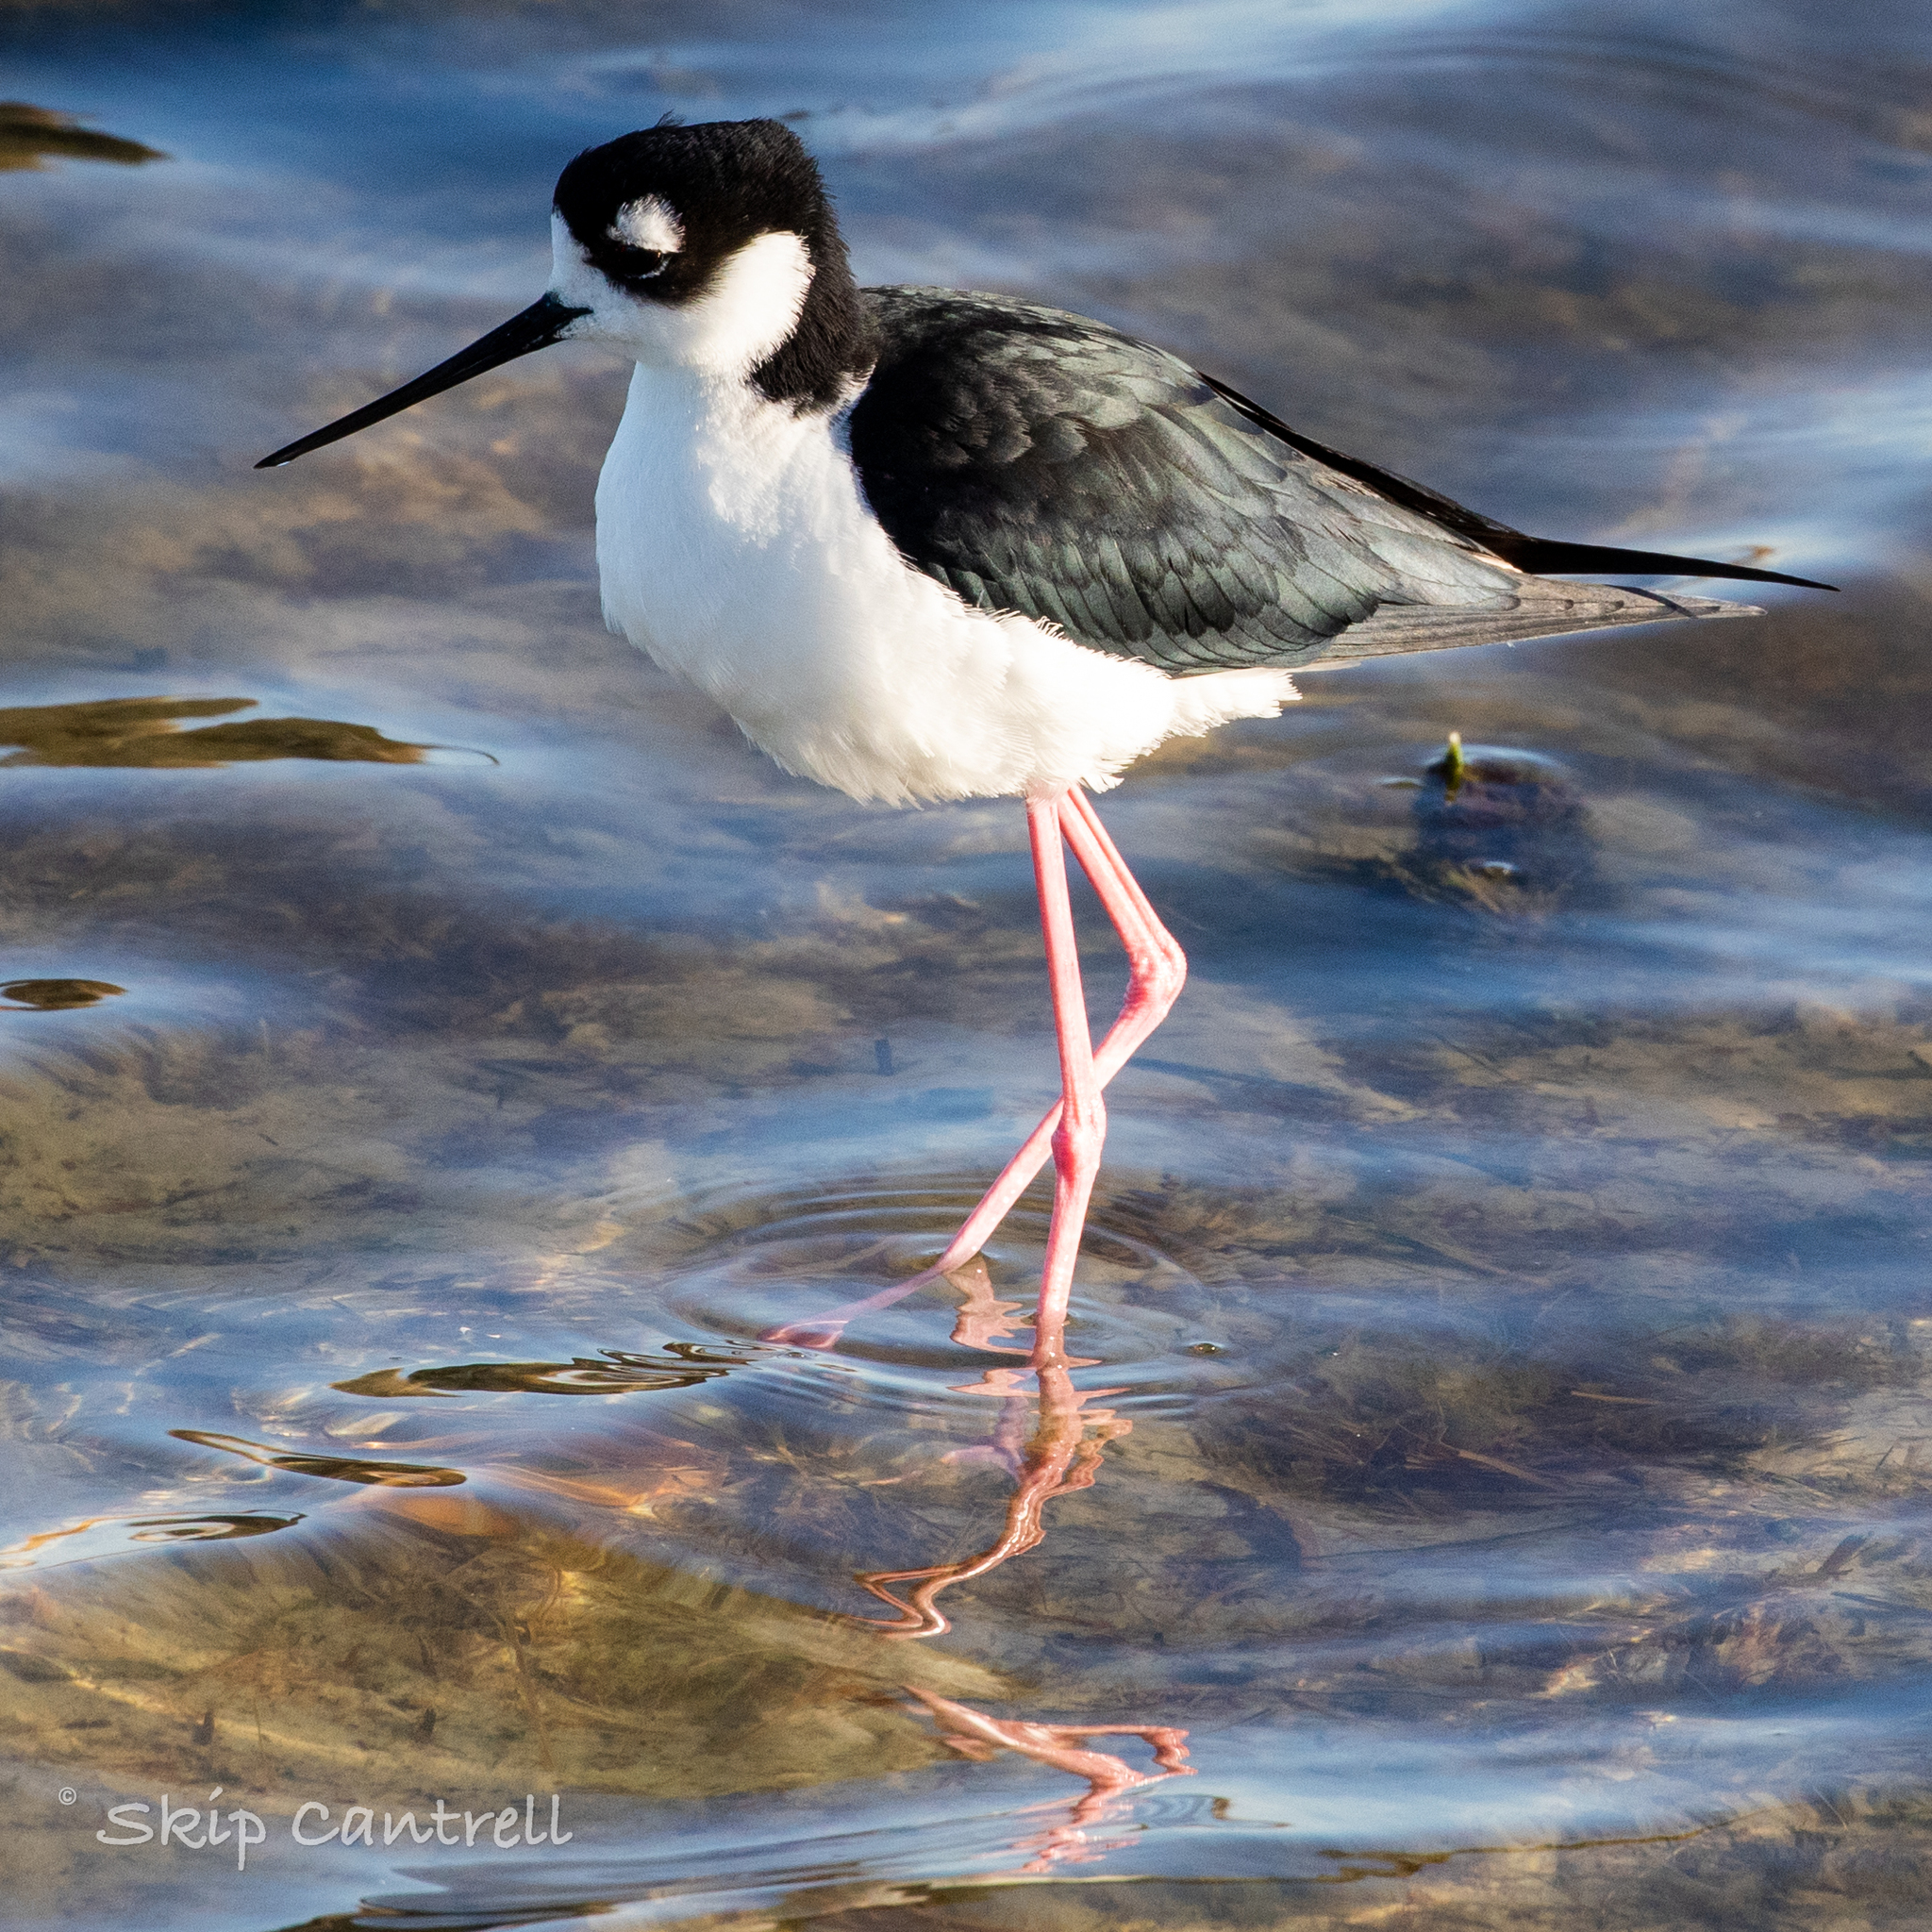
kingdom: Animalia
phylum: Chordata
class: Aves
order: Charadriiformes
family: Recurvirostridae
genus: Himantopus
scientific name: Himantopus mexicanus
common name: Black-necked stilt
